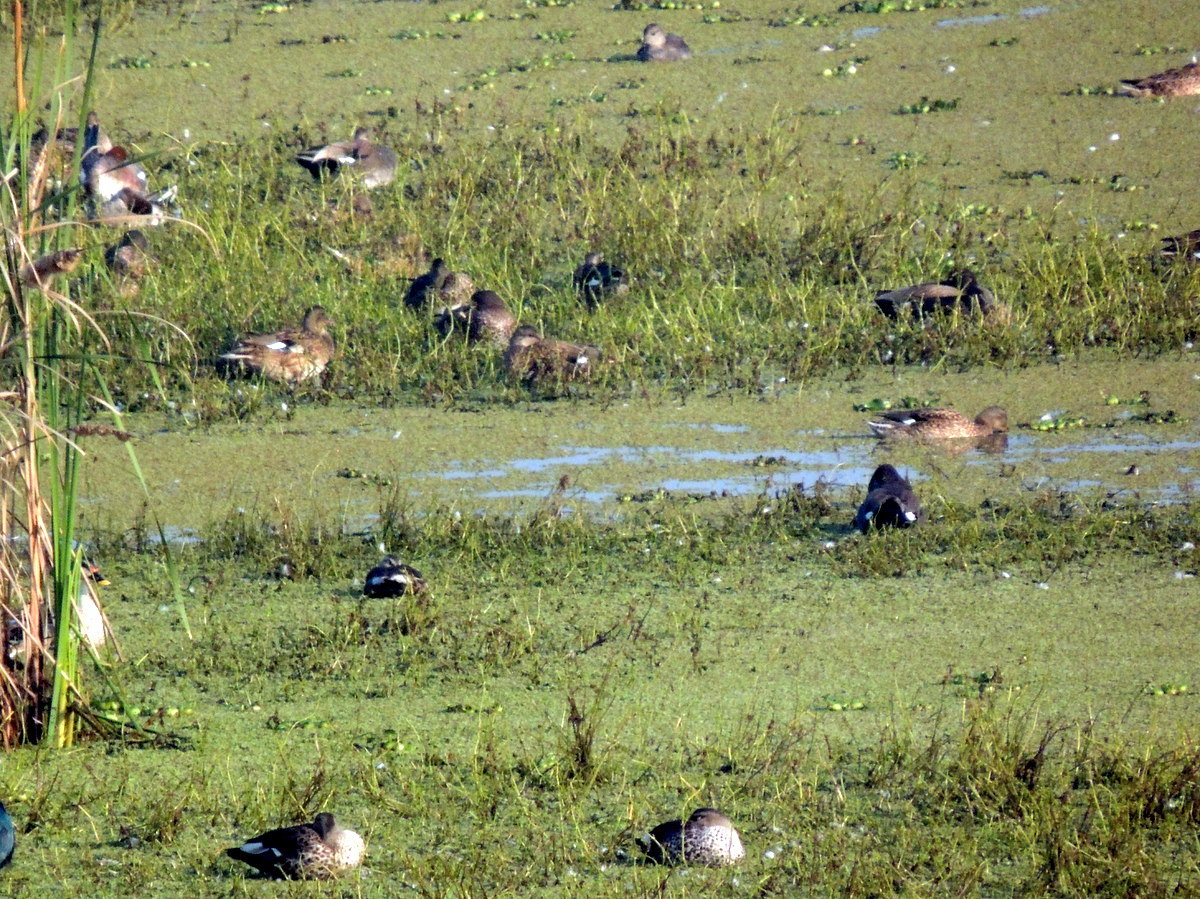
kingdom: Animalia
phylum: Chordata
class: Aves
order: Anseriformes
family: Anatidae
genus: Anas
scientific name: Anas poecilorhyncha
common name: Indian spot-billed duck
